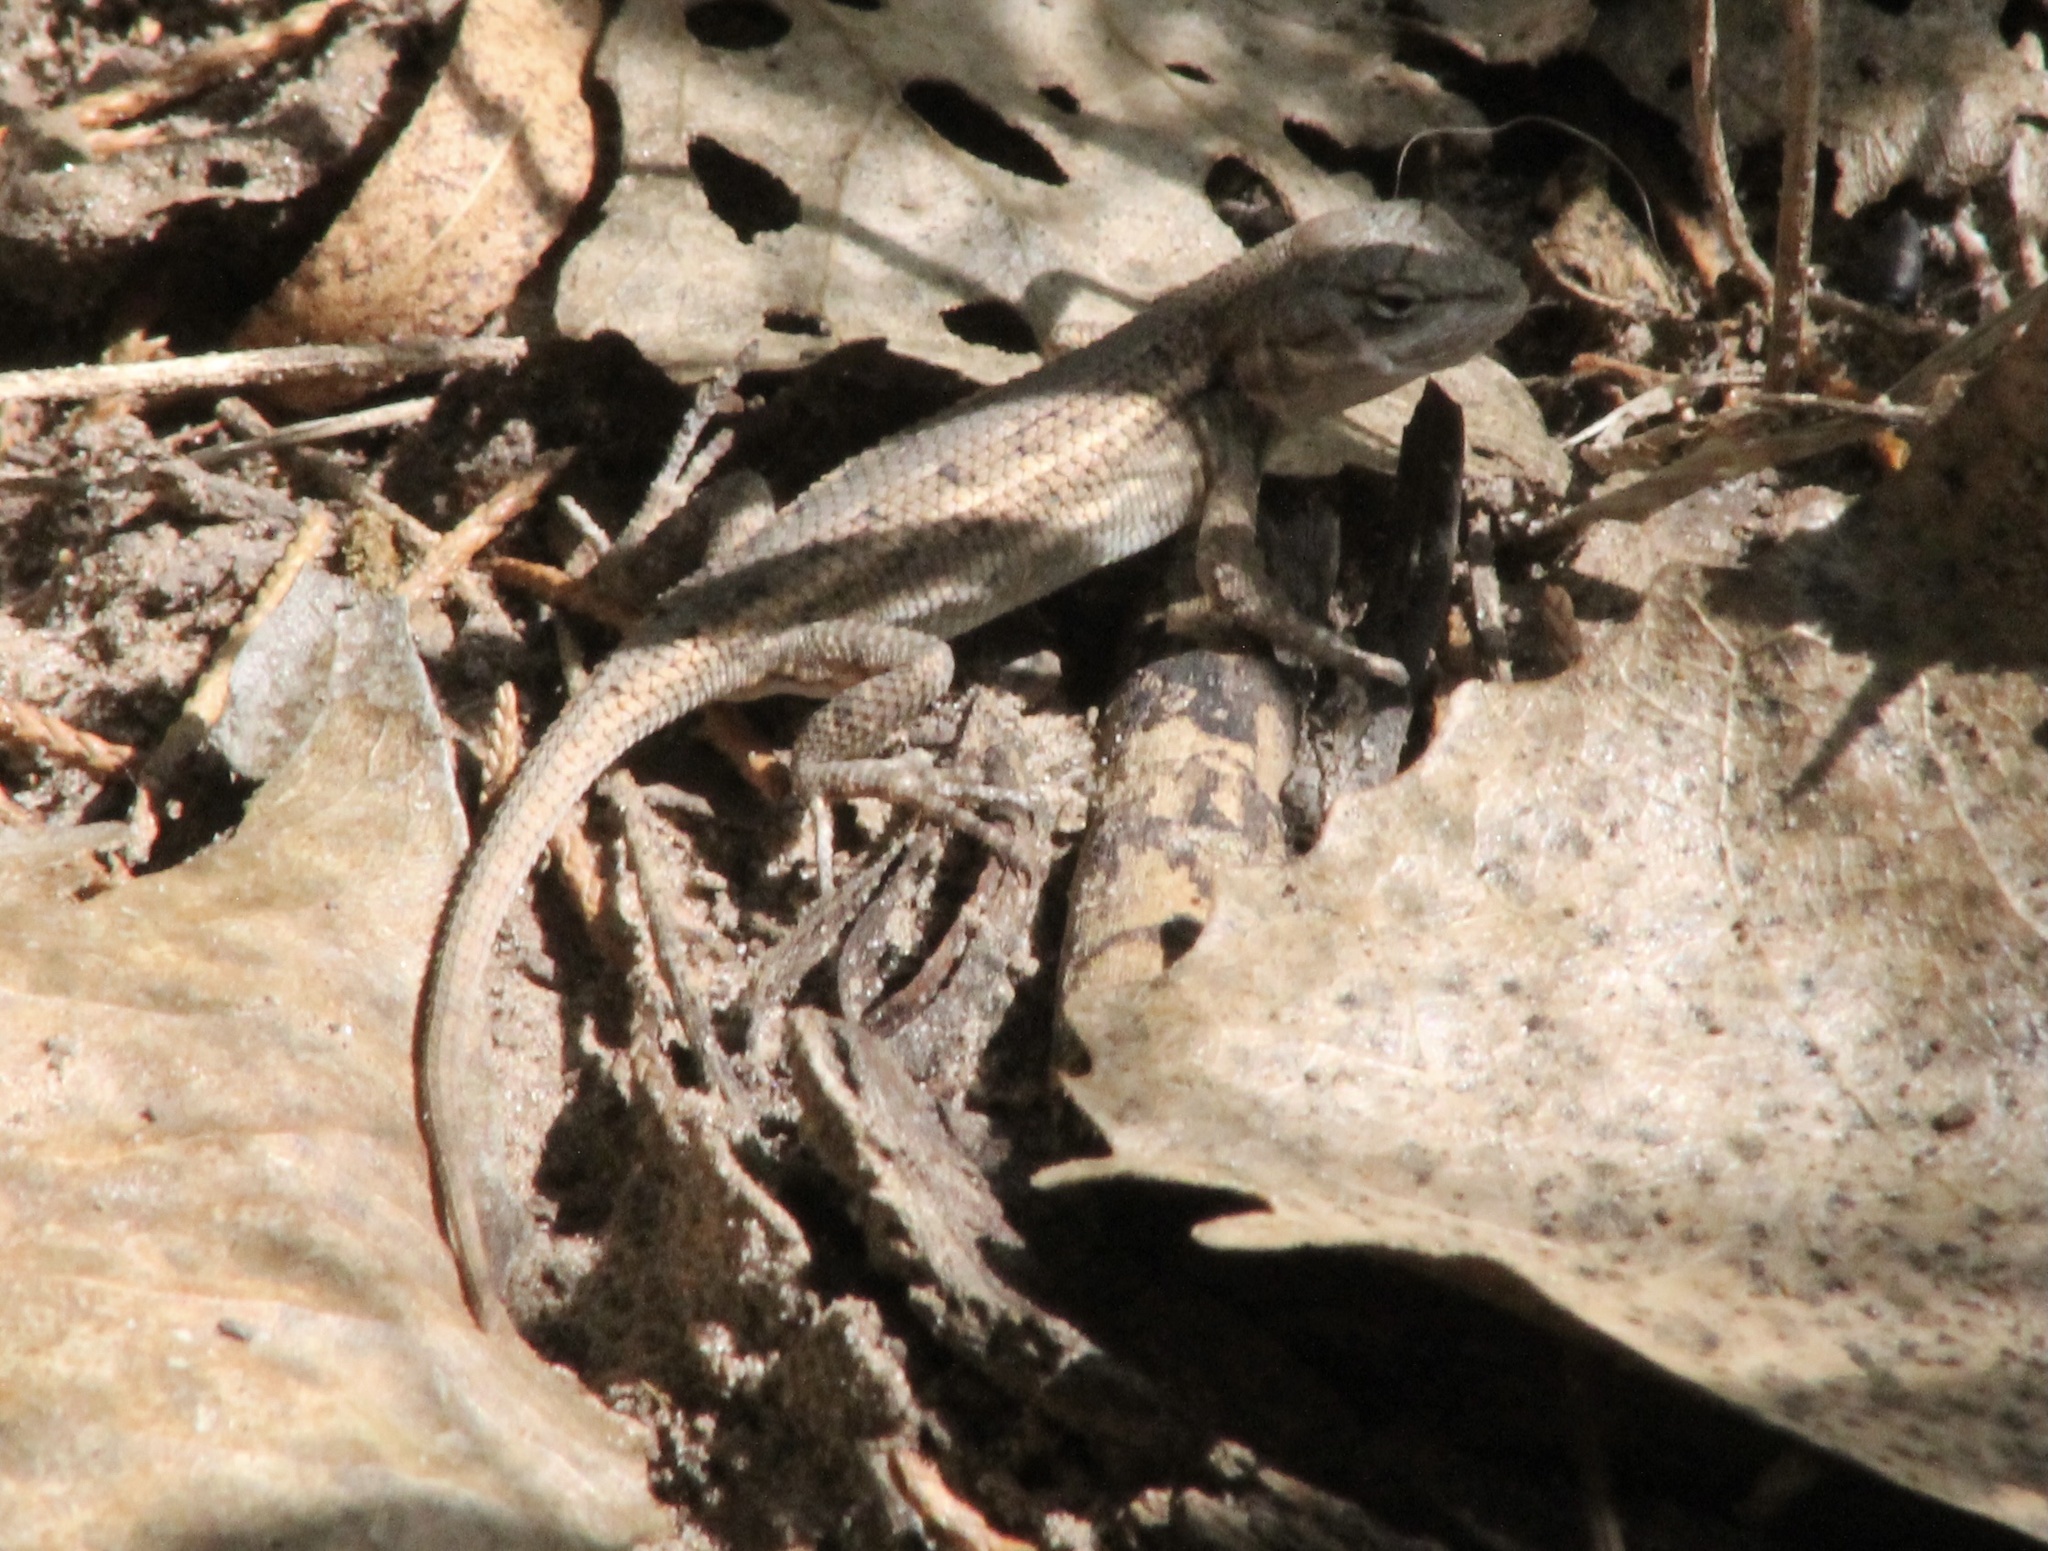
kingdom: Animalia
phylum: Chordata
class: Squamata
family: Phrynosomatidae
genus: Sceloporus
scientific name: Sceloporus consobrinus
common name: Southern prairie lizard
